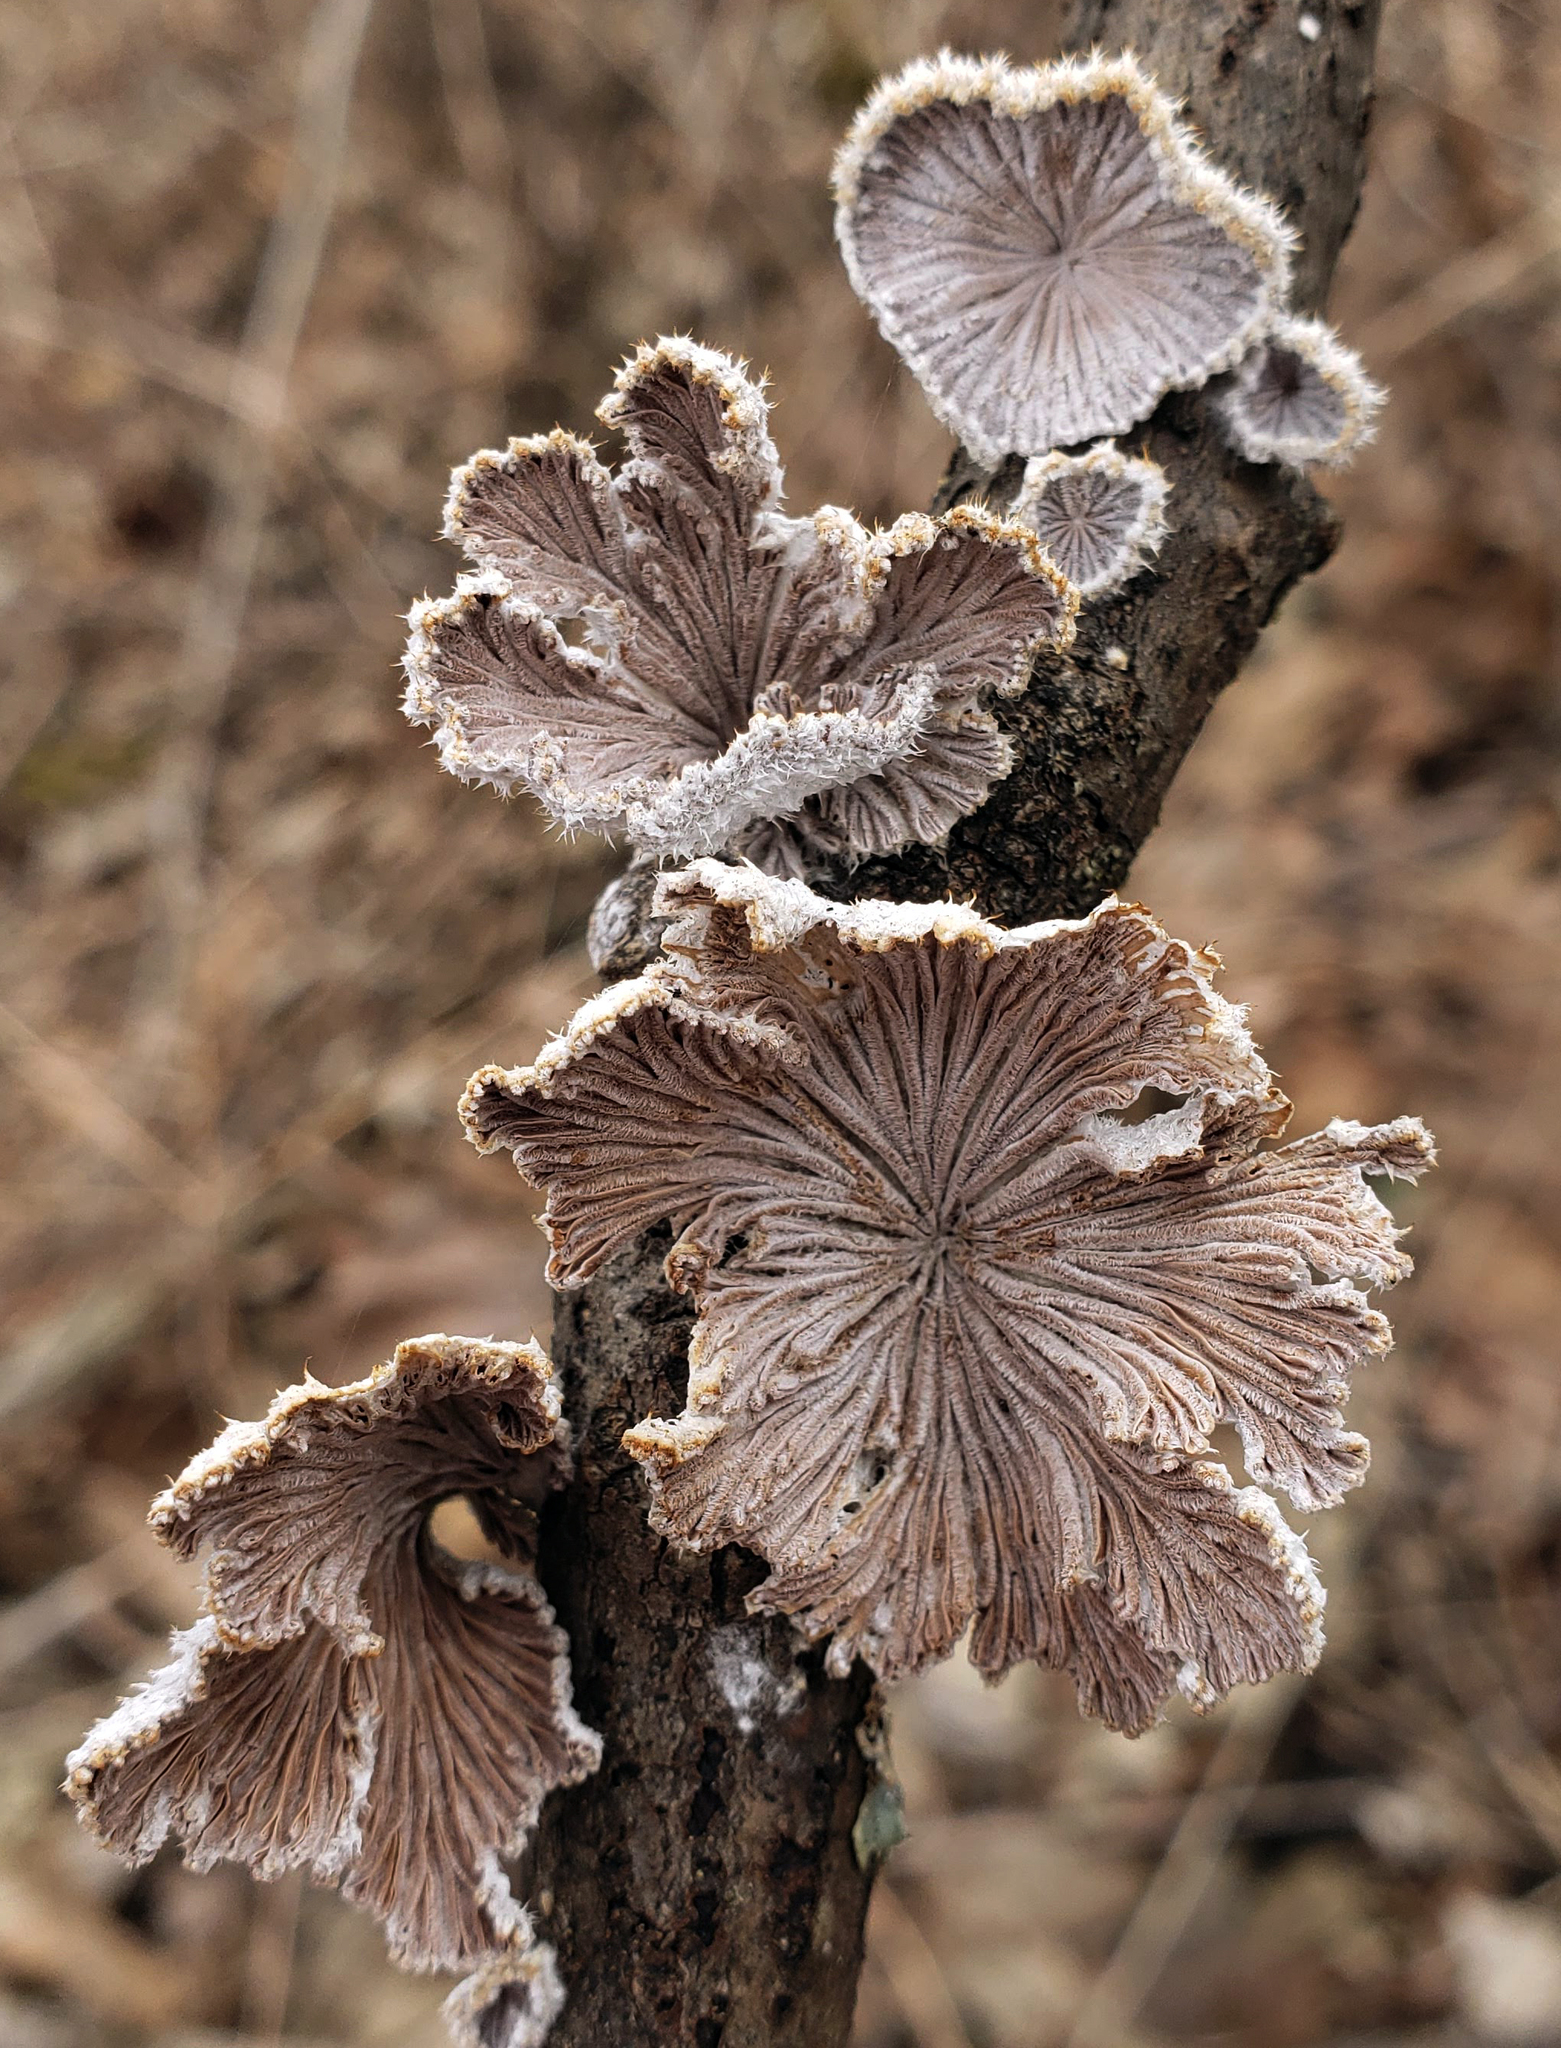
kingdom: Fungi
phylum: Basidiomycota
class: Agaricomycetes
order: Agaricales
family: Schizophyllaceae
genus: Schizophyllum
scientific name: Schizophyllum commune
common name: Common porecrust
